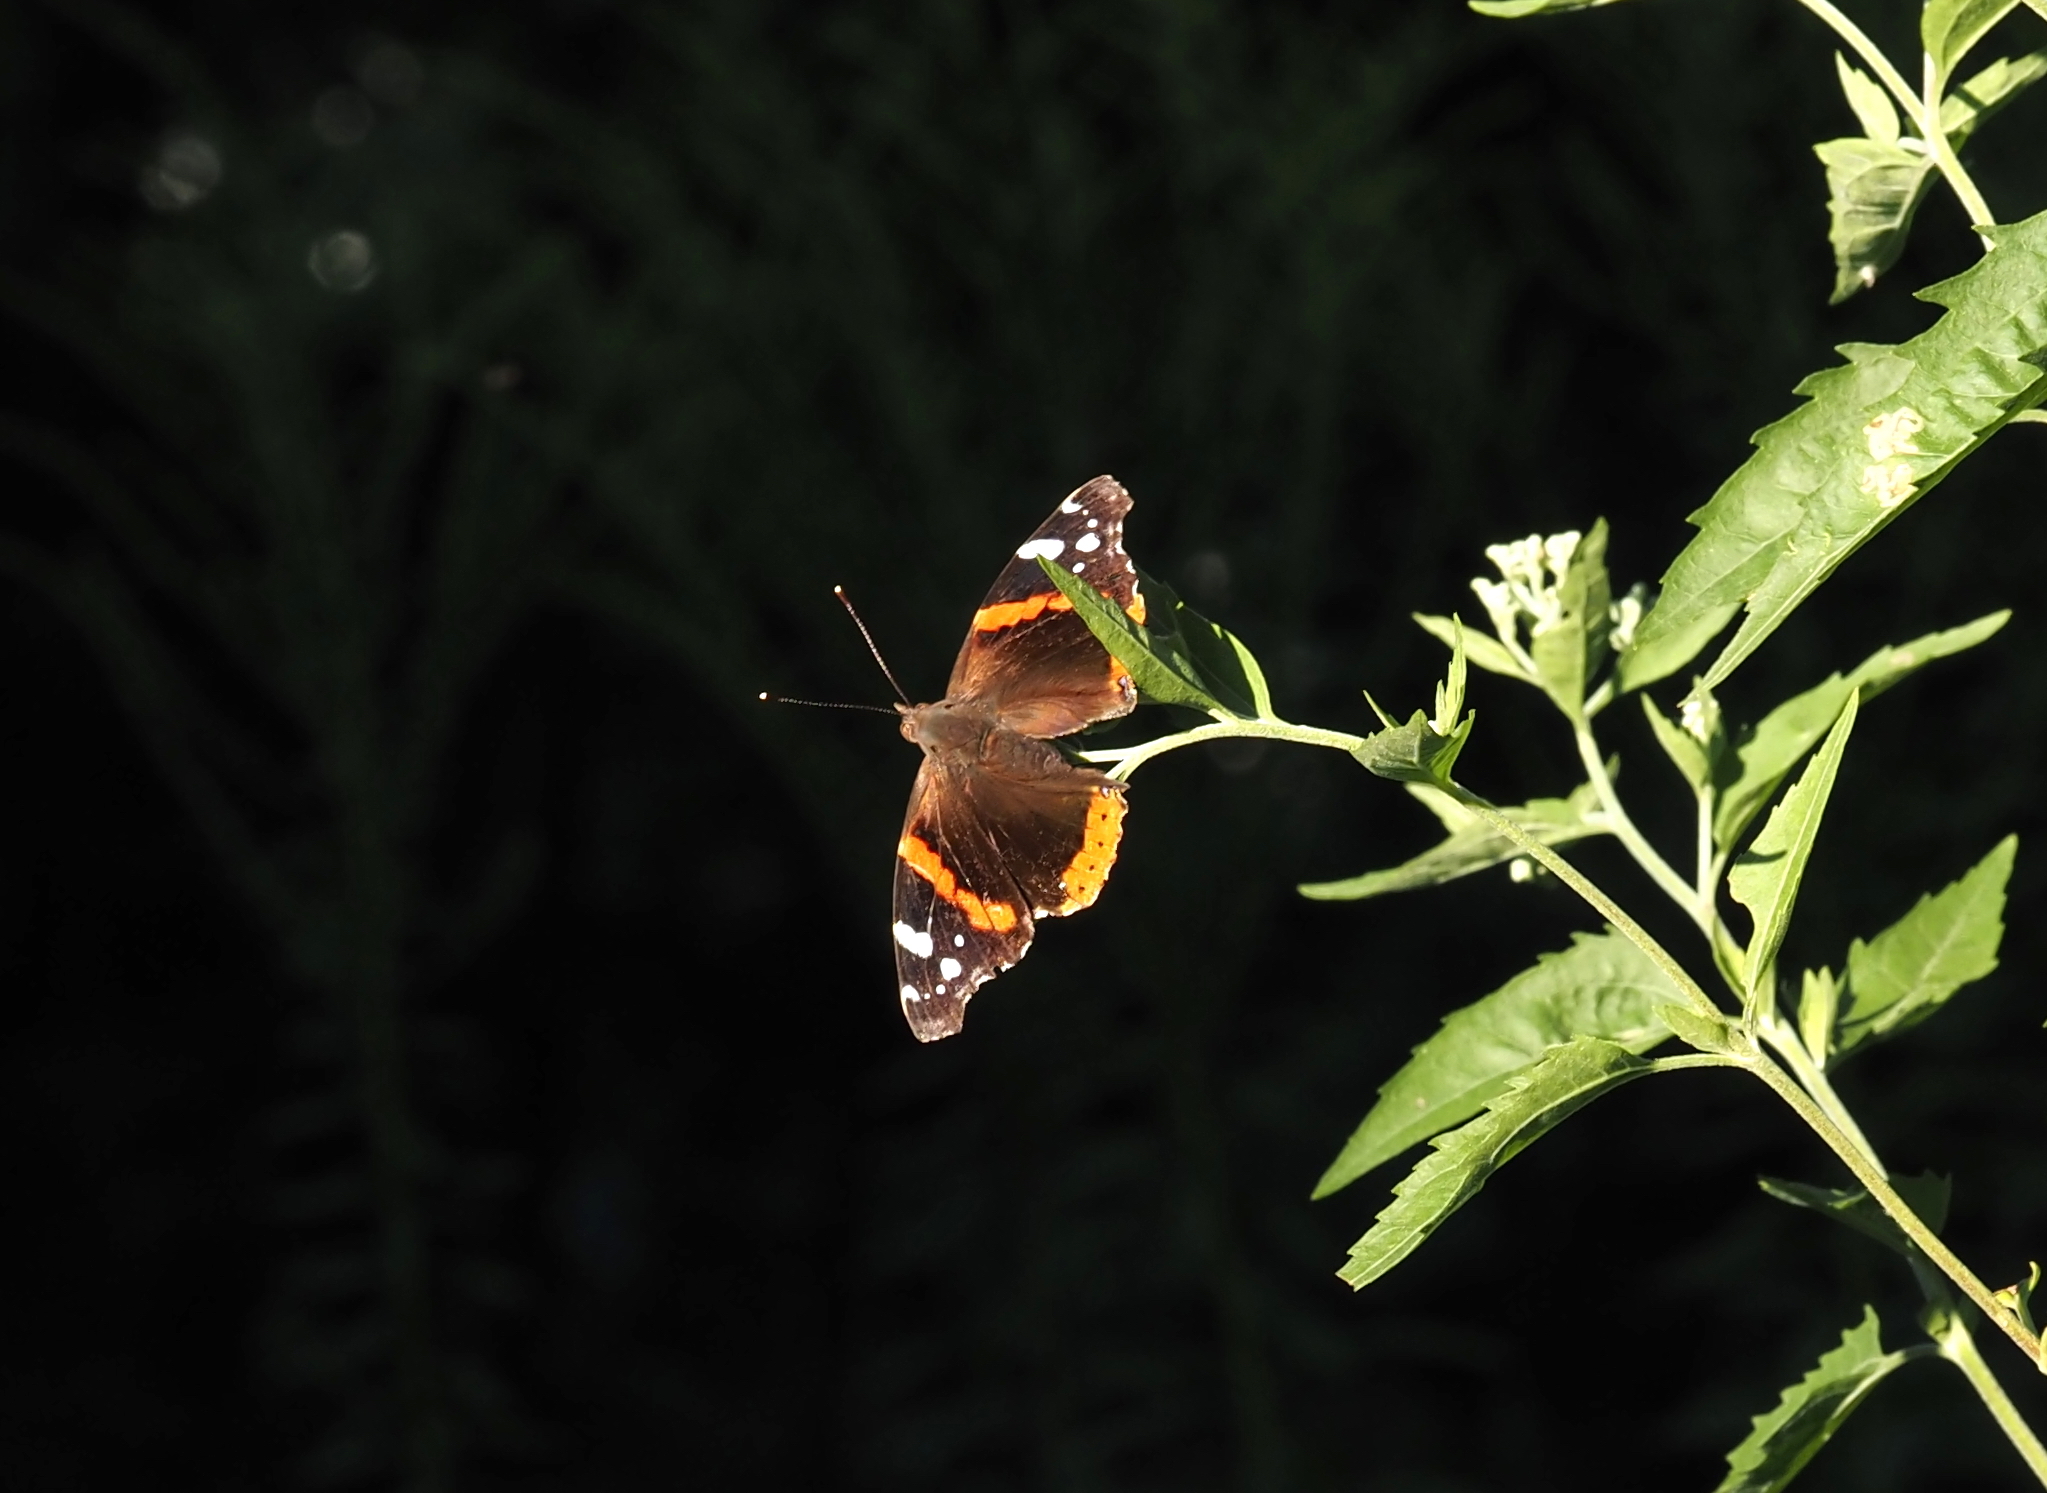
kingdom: Animalia
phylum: Arthropoda
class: Insecta
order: Lepidoptera
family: Nymphalidae
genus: Vanessa
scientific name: Vanessa atalanta
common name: Red admiral
